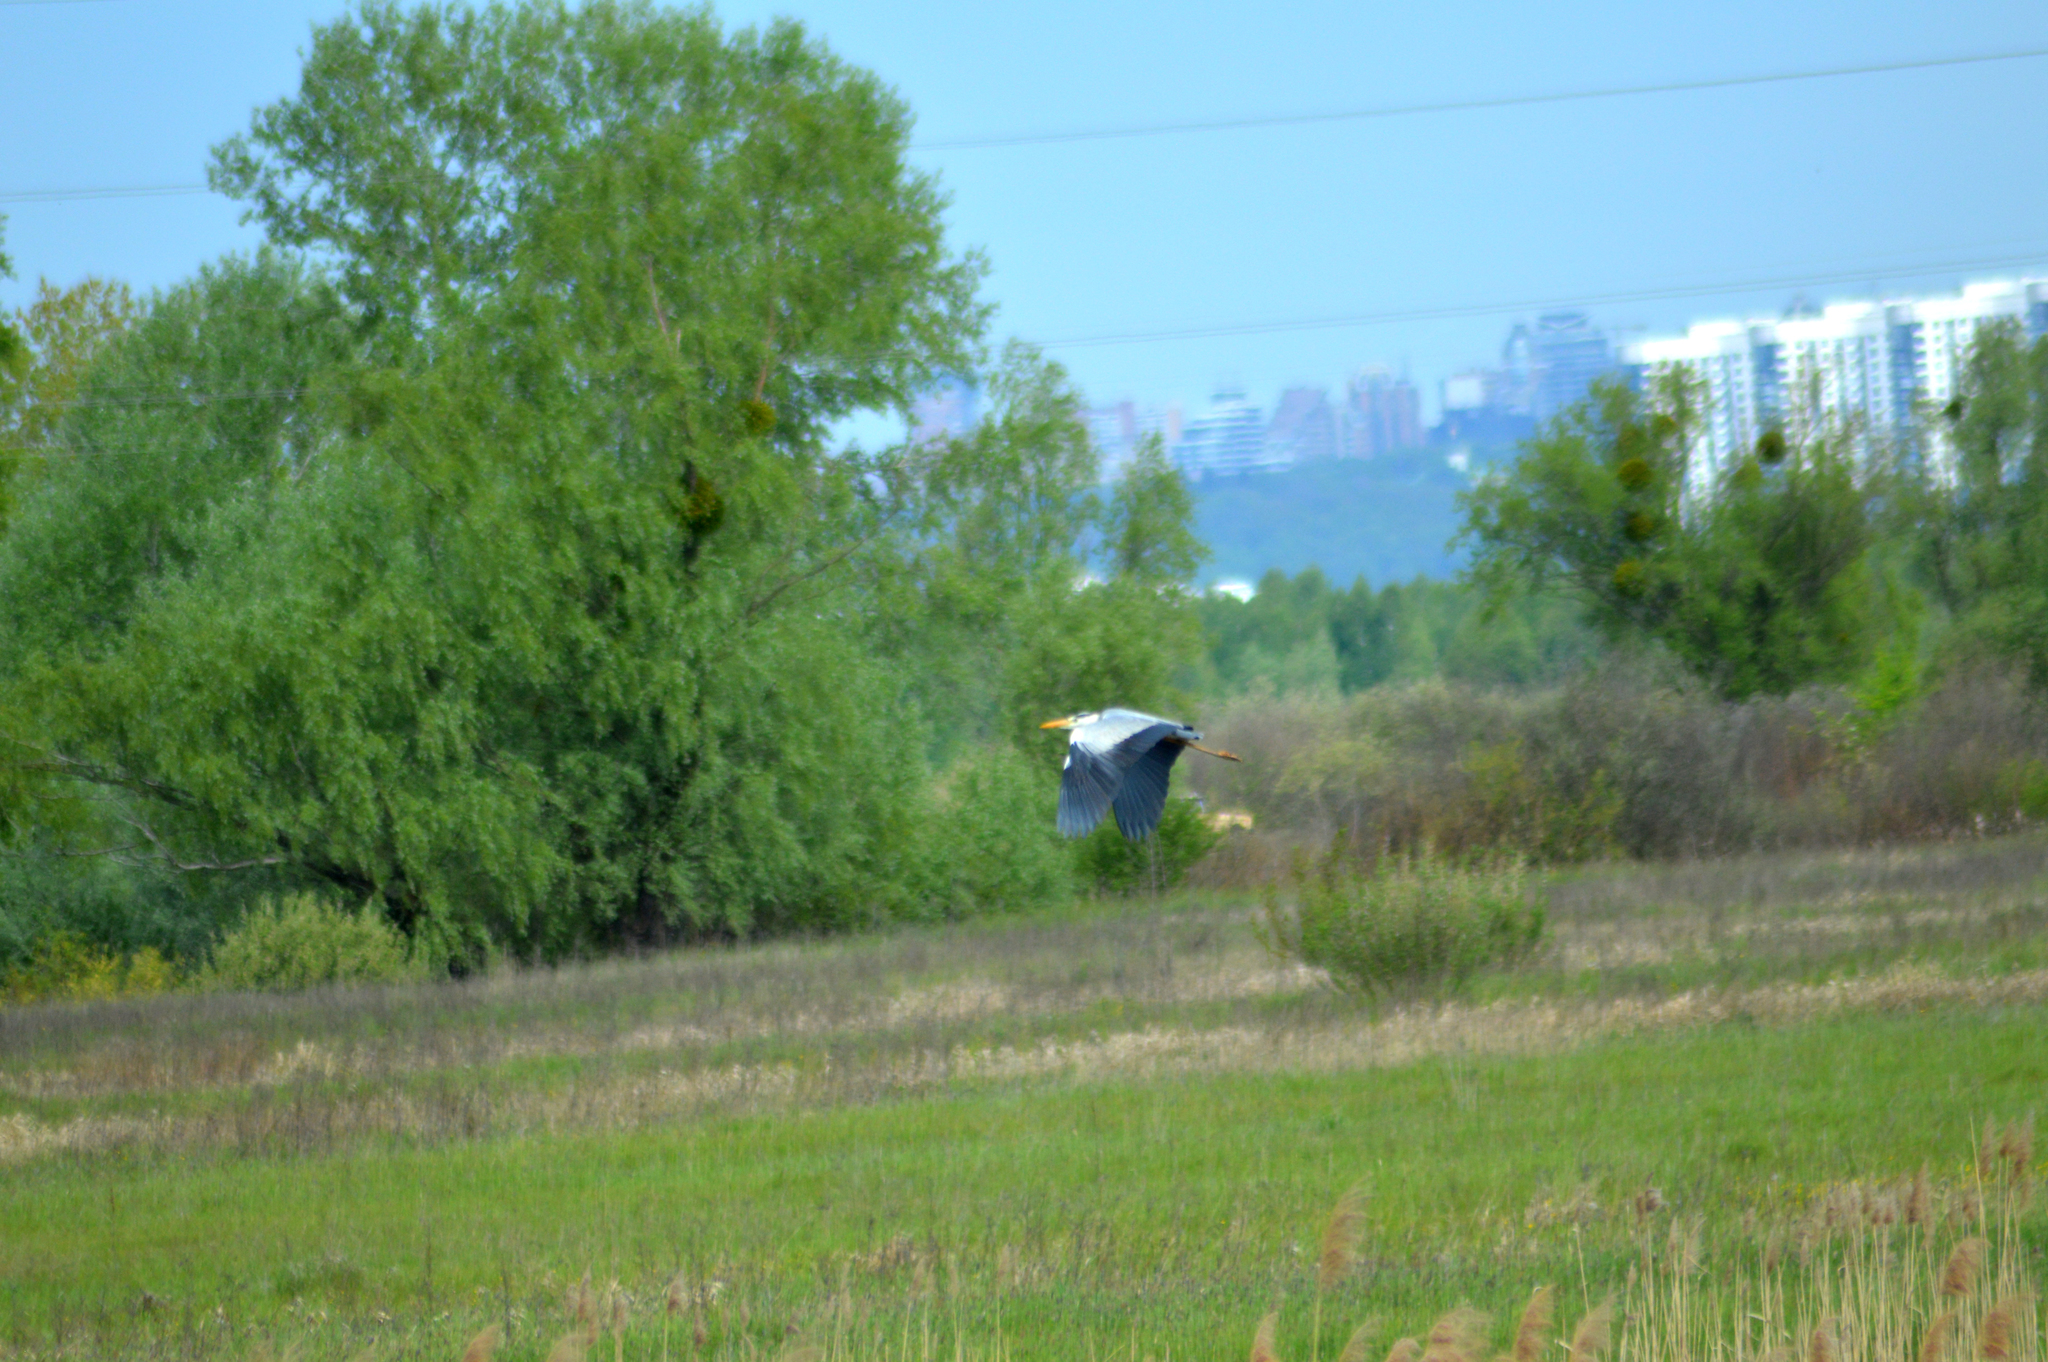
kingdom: Animalia
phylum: Chordata
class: Aves
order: Pelecaniformes
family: Ardeidae
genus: Ardea
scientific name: Ardea cinerea
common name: Grey heron
